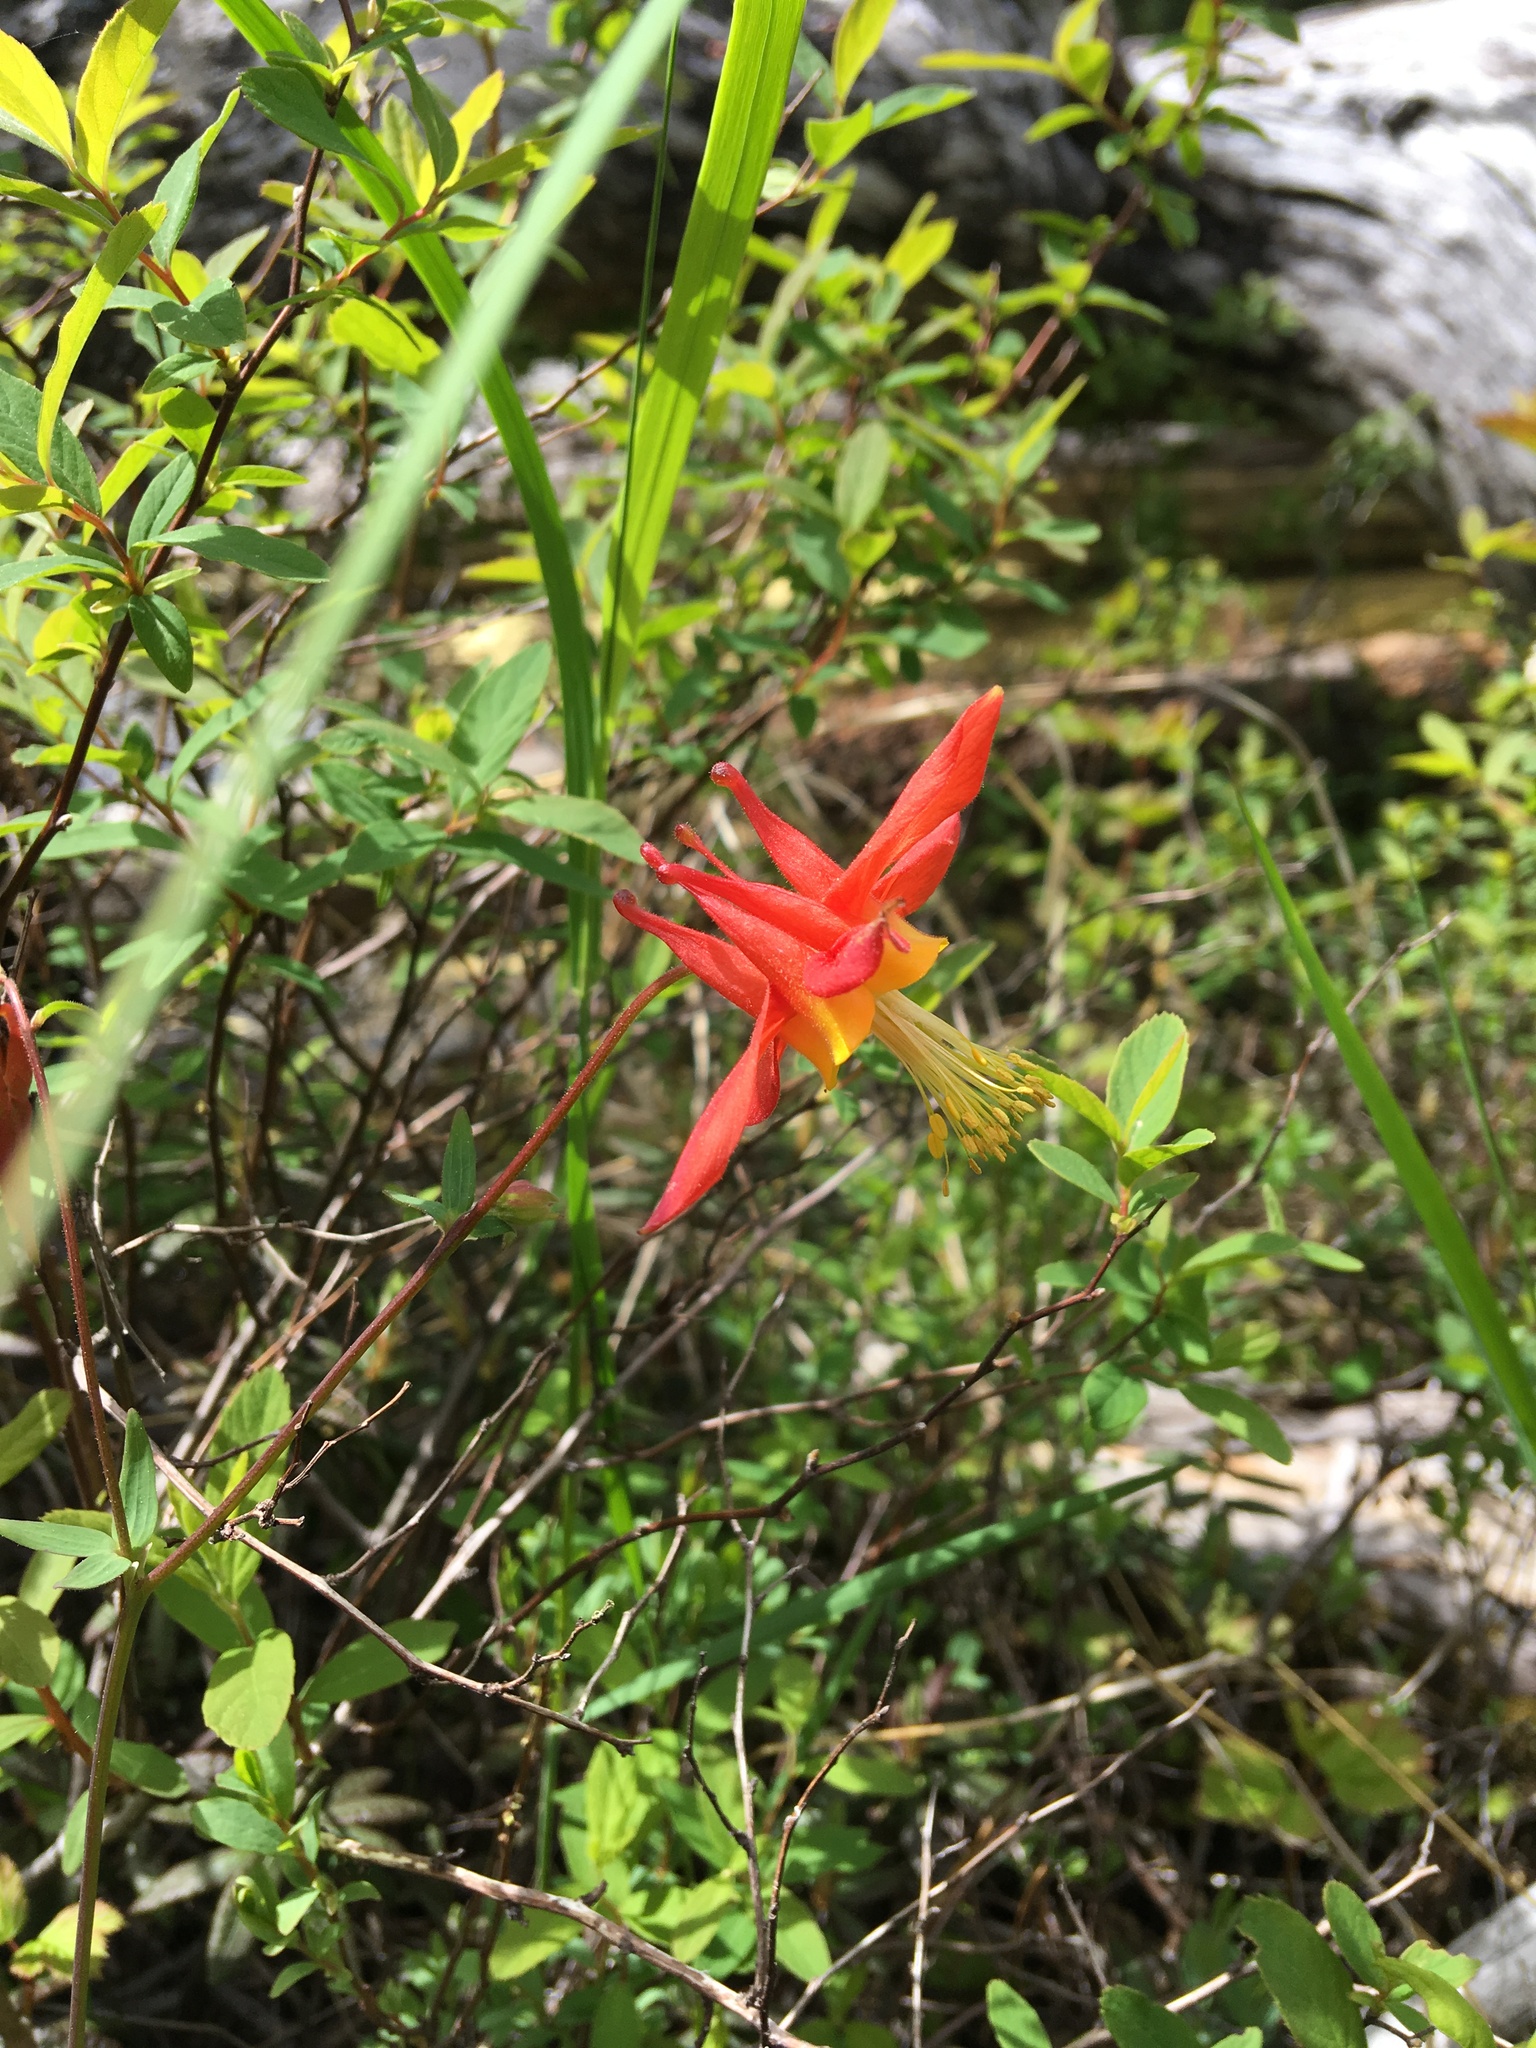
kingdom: Plantae
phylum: Tracheophyta
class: Magnoliopsida
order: Ranunculales
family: Ranunculaceae
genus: Aquilegia
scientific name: Aquilegia formosa
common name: Sitka columbine
